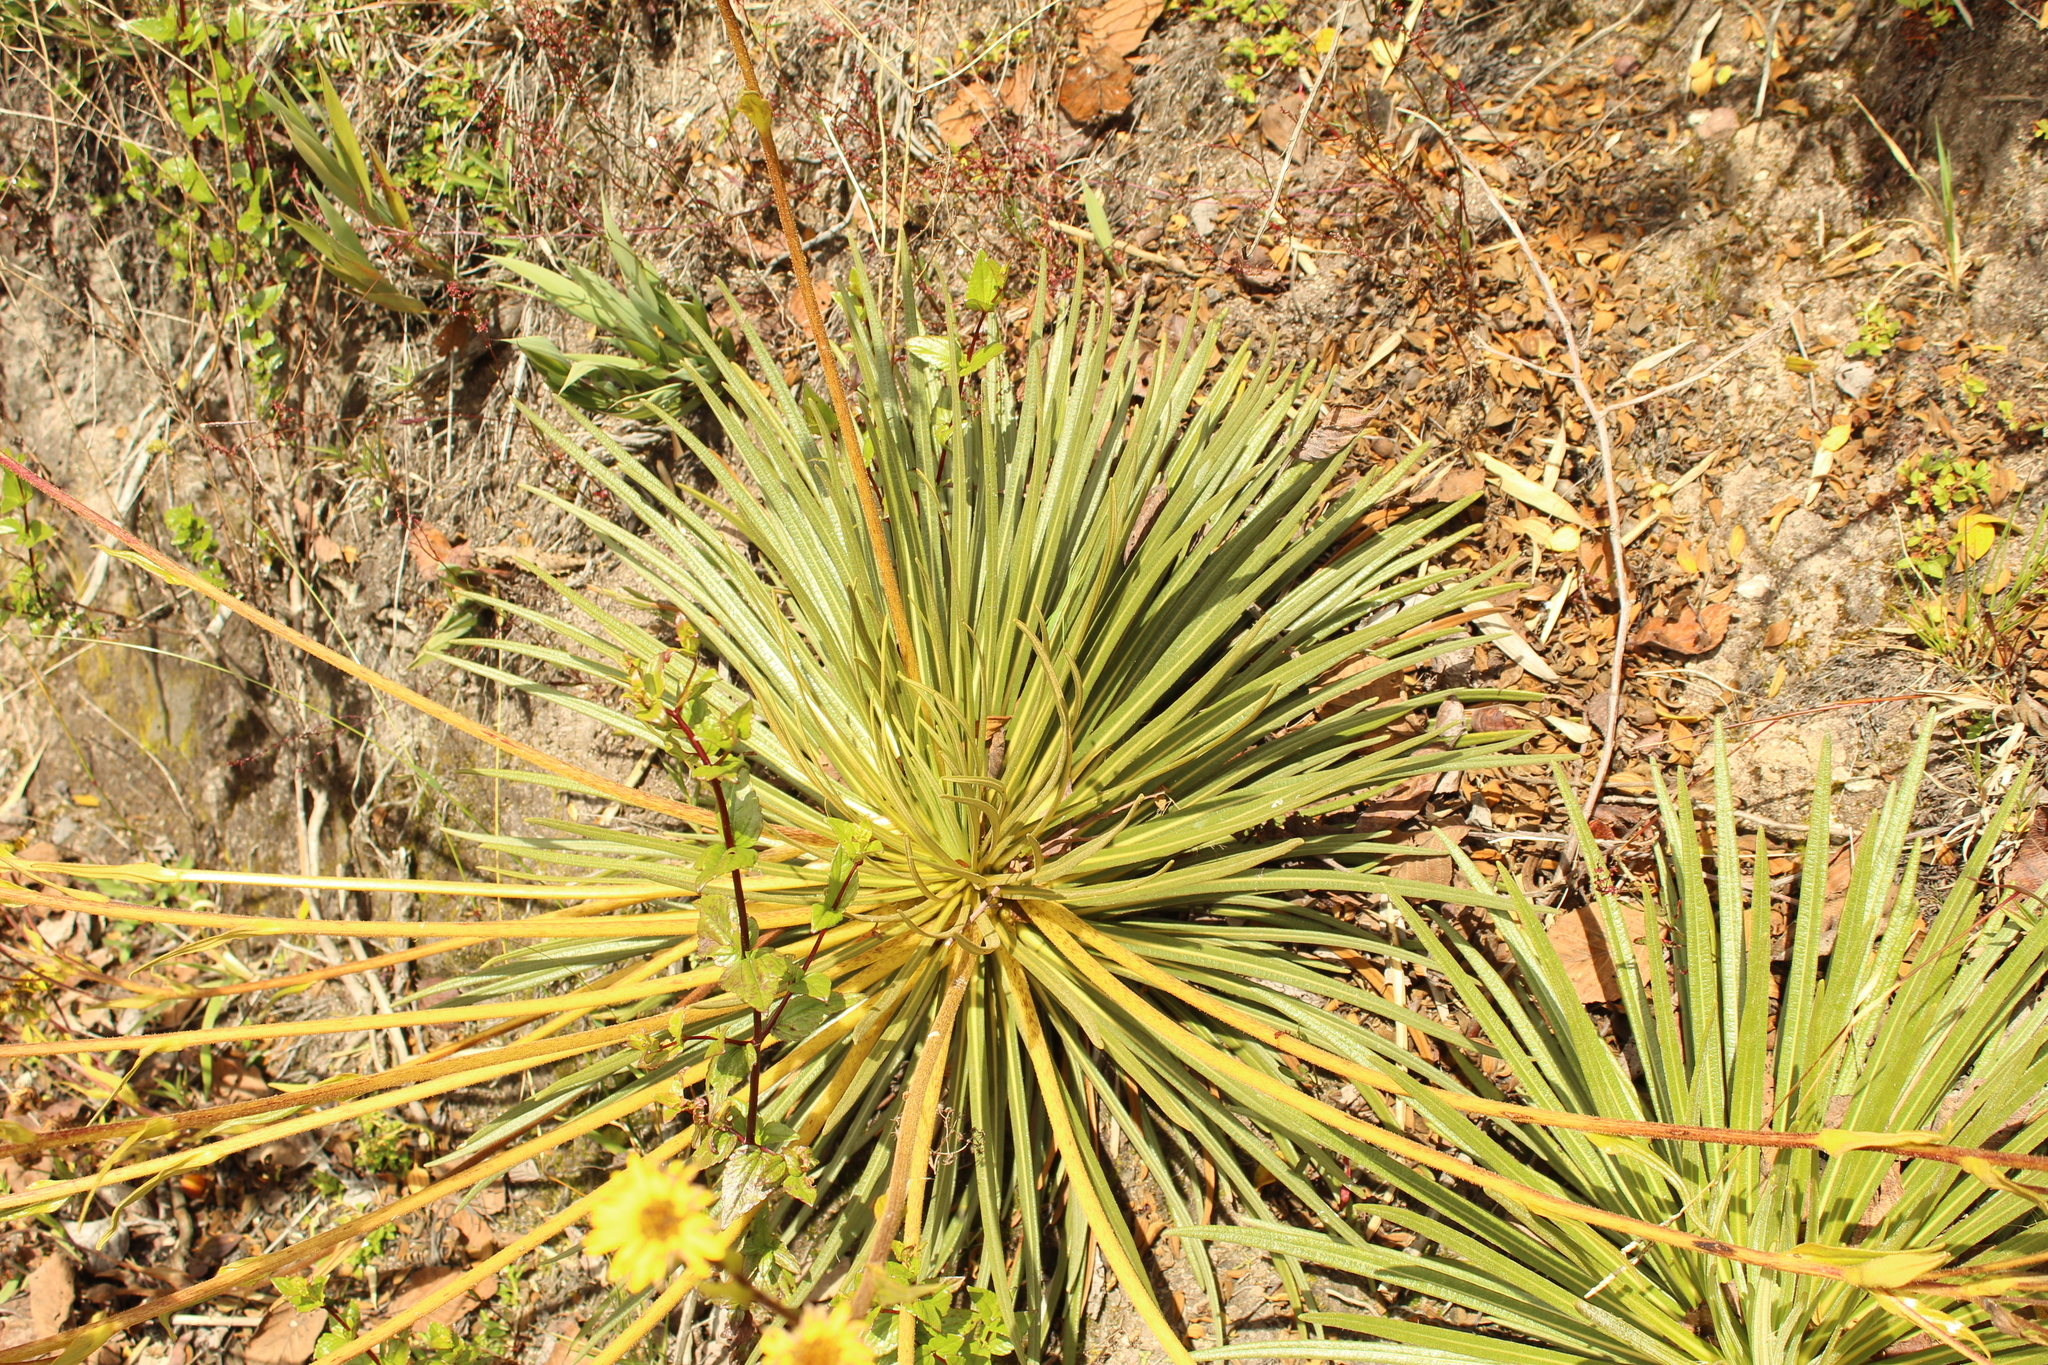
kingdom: Plantae
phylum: Tracheophyta
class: Magnoliopsida
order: Asterales
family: Asteraceae
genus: Espeletia
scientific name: Espeletia glandulosa
